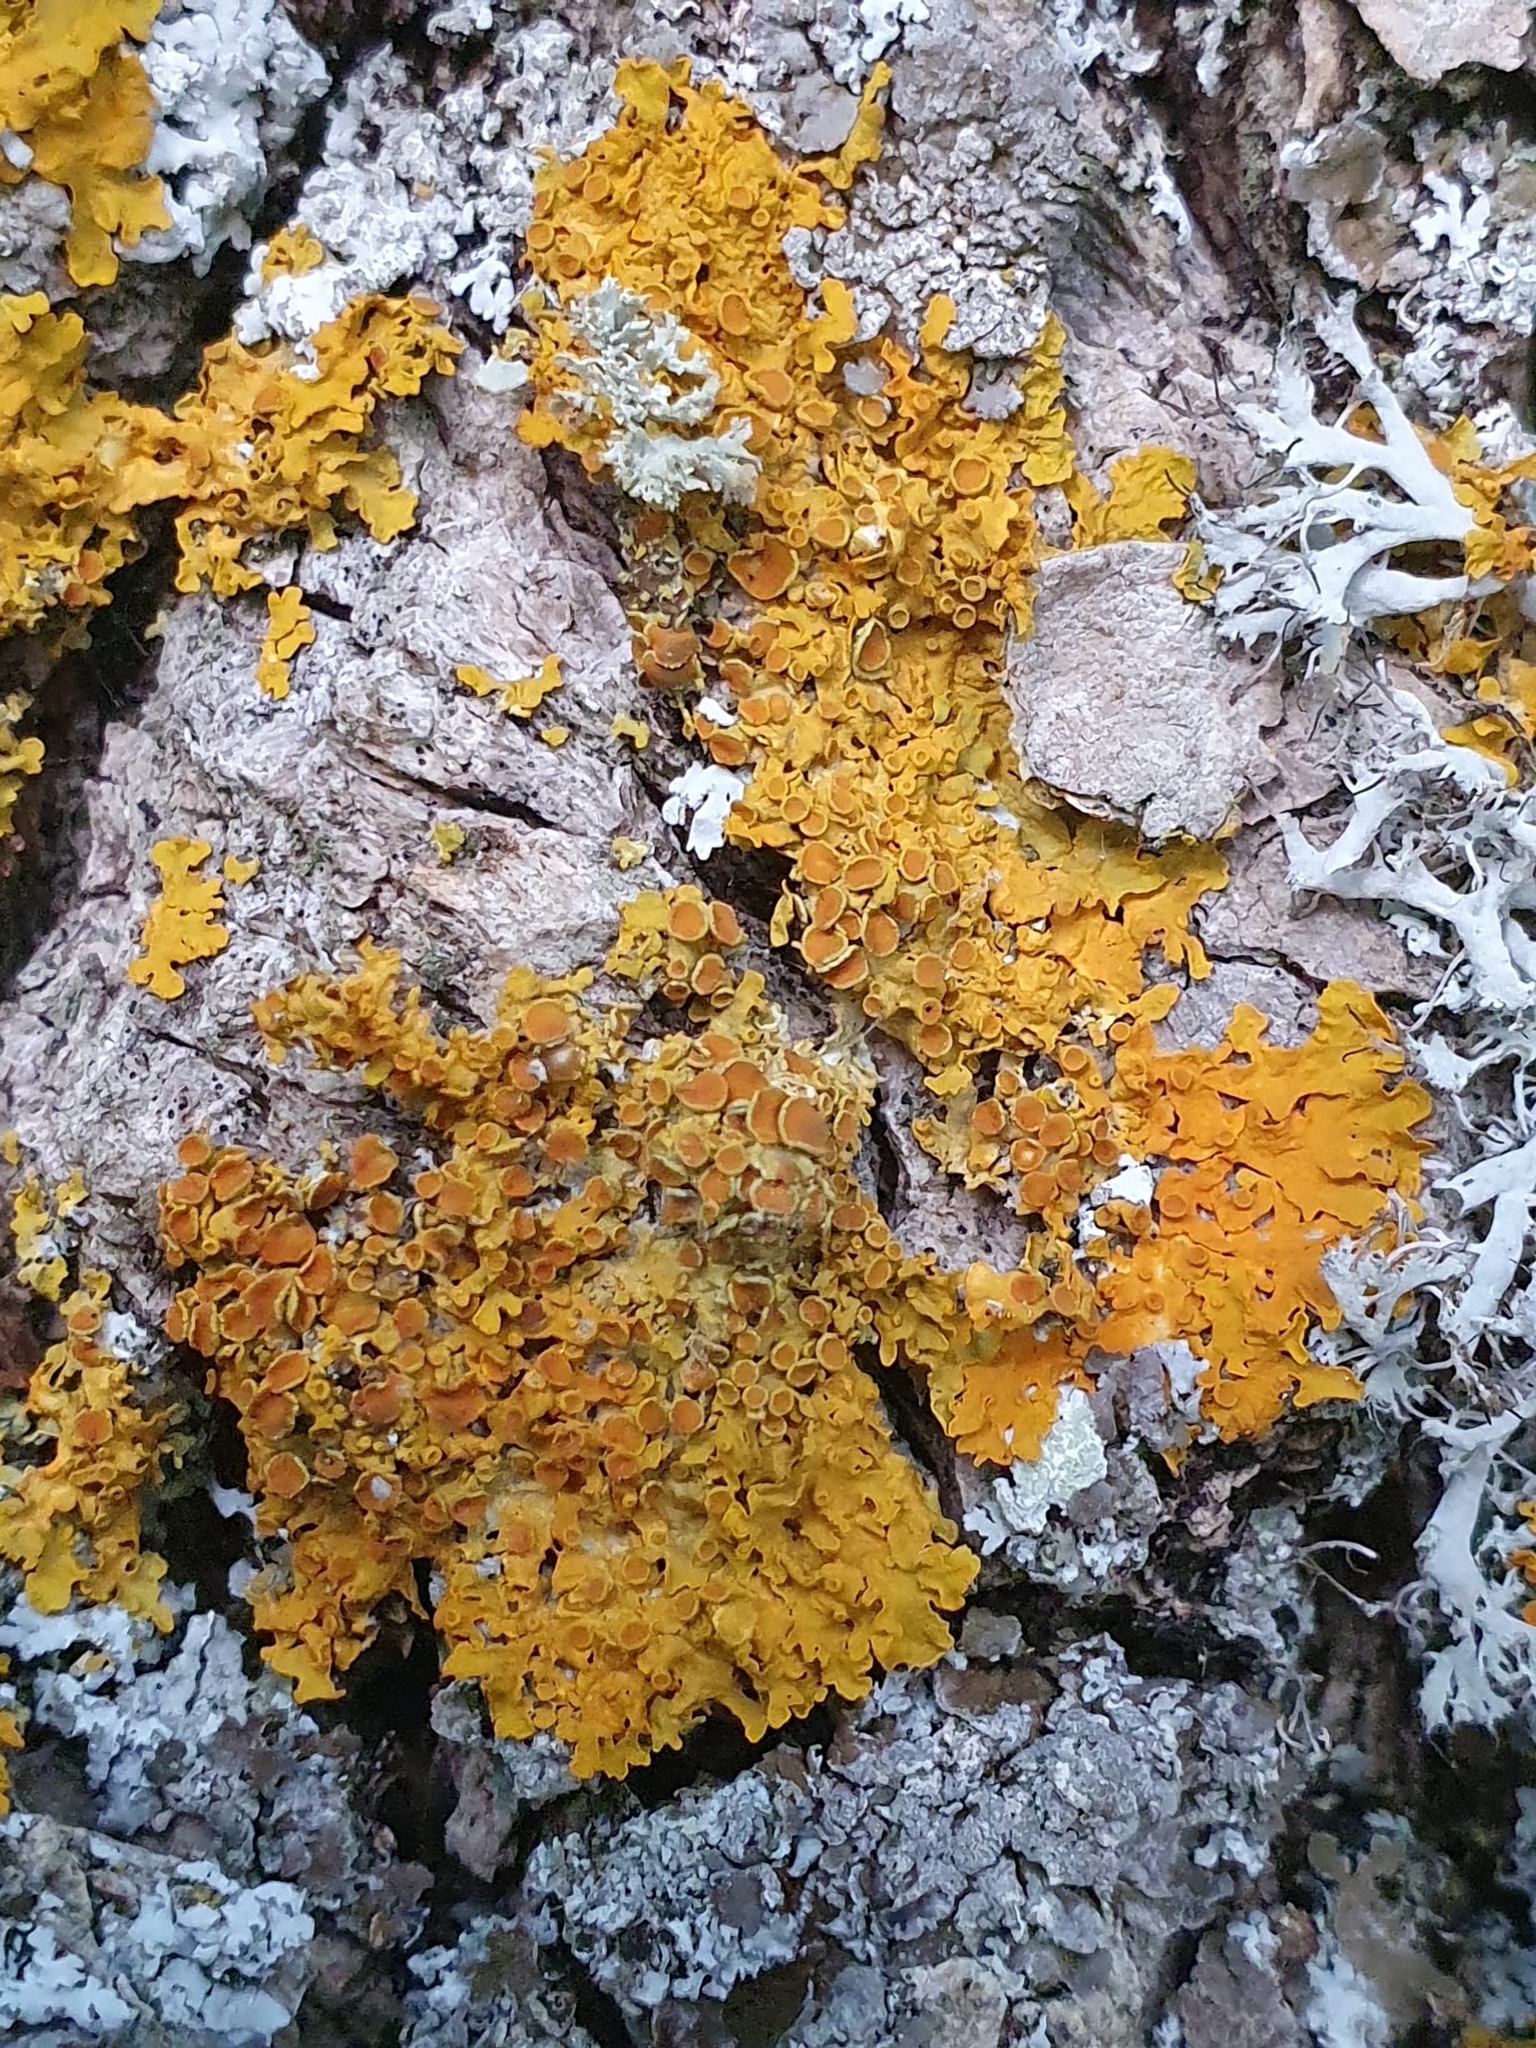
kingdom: Fungi
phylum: Ascomycota
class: Lecanoromycetes
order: Teloschistales
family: Teloschistaceae
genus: Xanthoria
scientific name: Xanthoria parietina
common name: Common orange lichen
